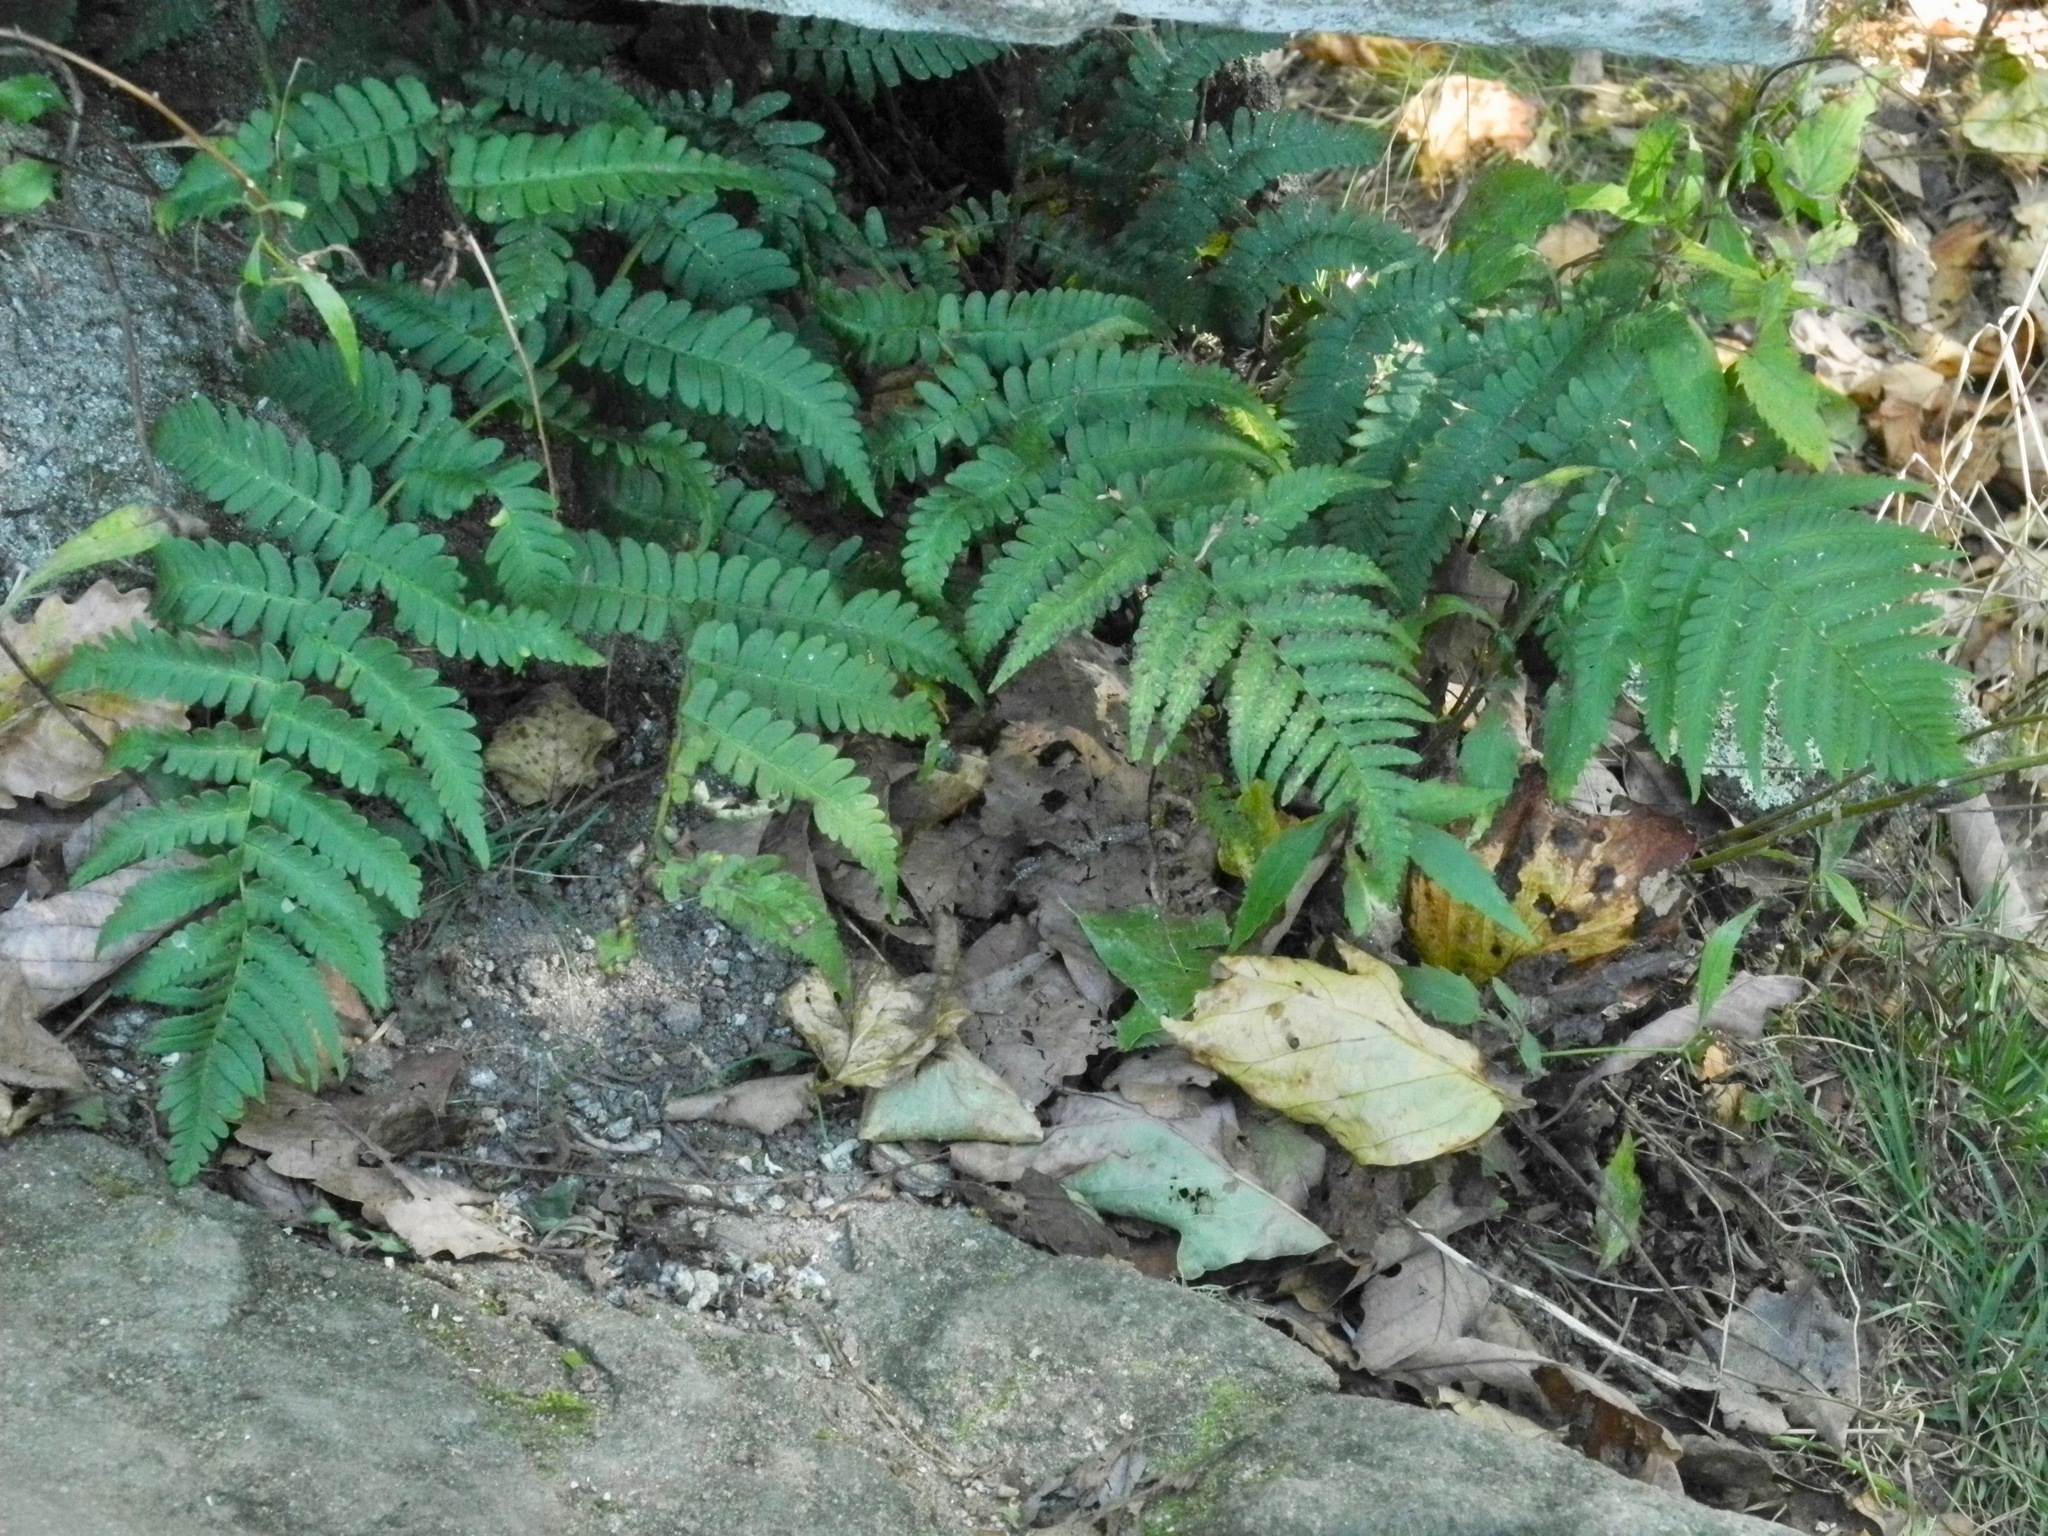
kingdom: Plantae
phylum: Tracheophyta
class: Polypodiopsida
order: Polypodiales
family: Dryopteridaceae
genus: Dryopteris
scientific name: Dryopteris marginalis
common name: Marginal wood fern
